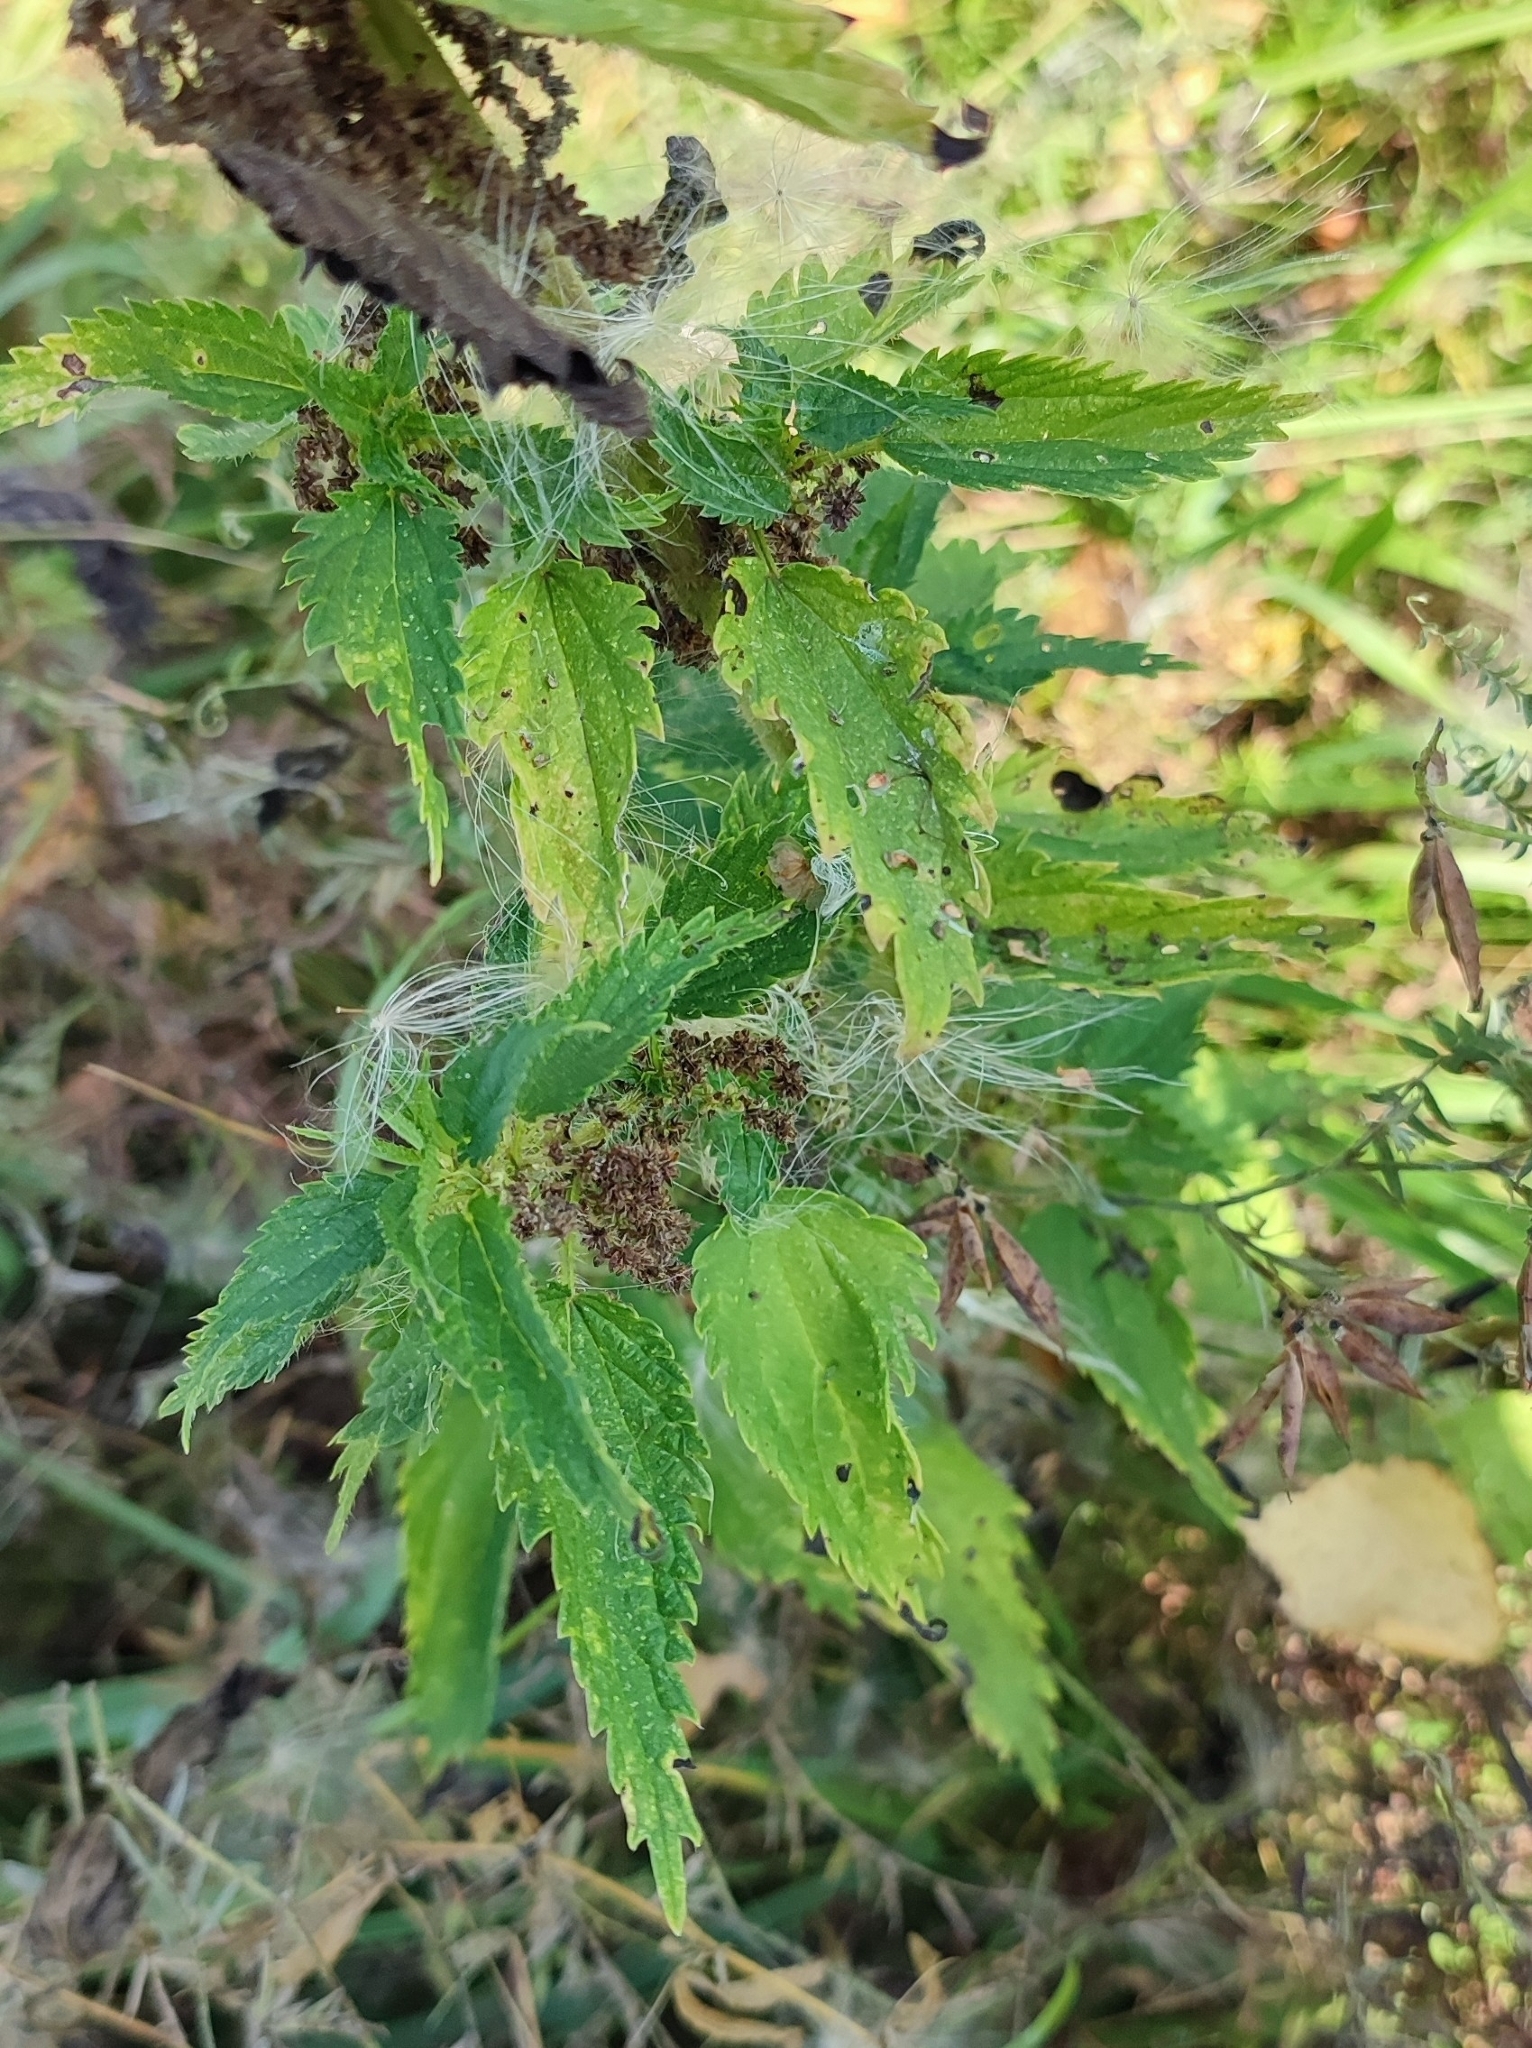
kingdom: Plantae
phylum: Tracheophyta
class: Magnoliopsida
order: Rosales
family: Urticaceae
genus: Urtica
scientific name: Urtica dioica
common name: Common nettle
